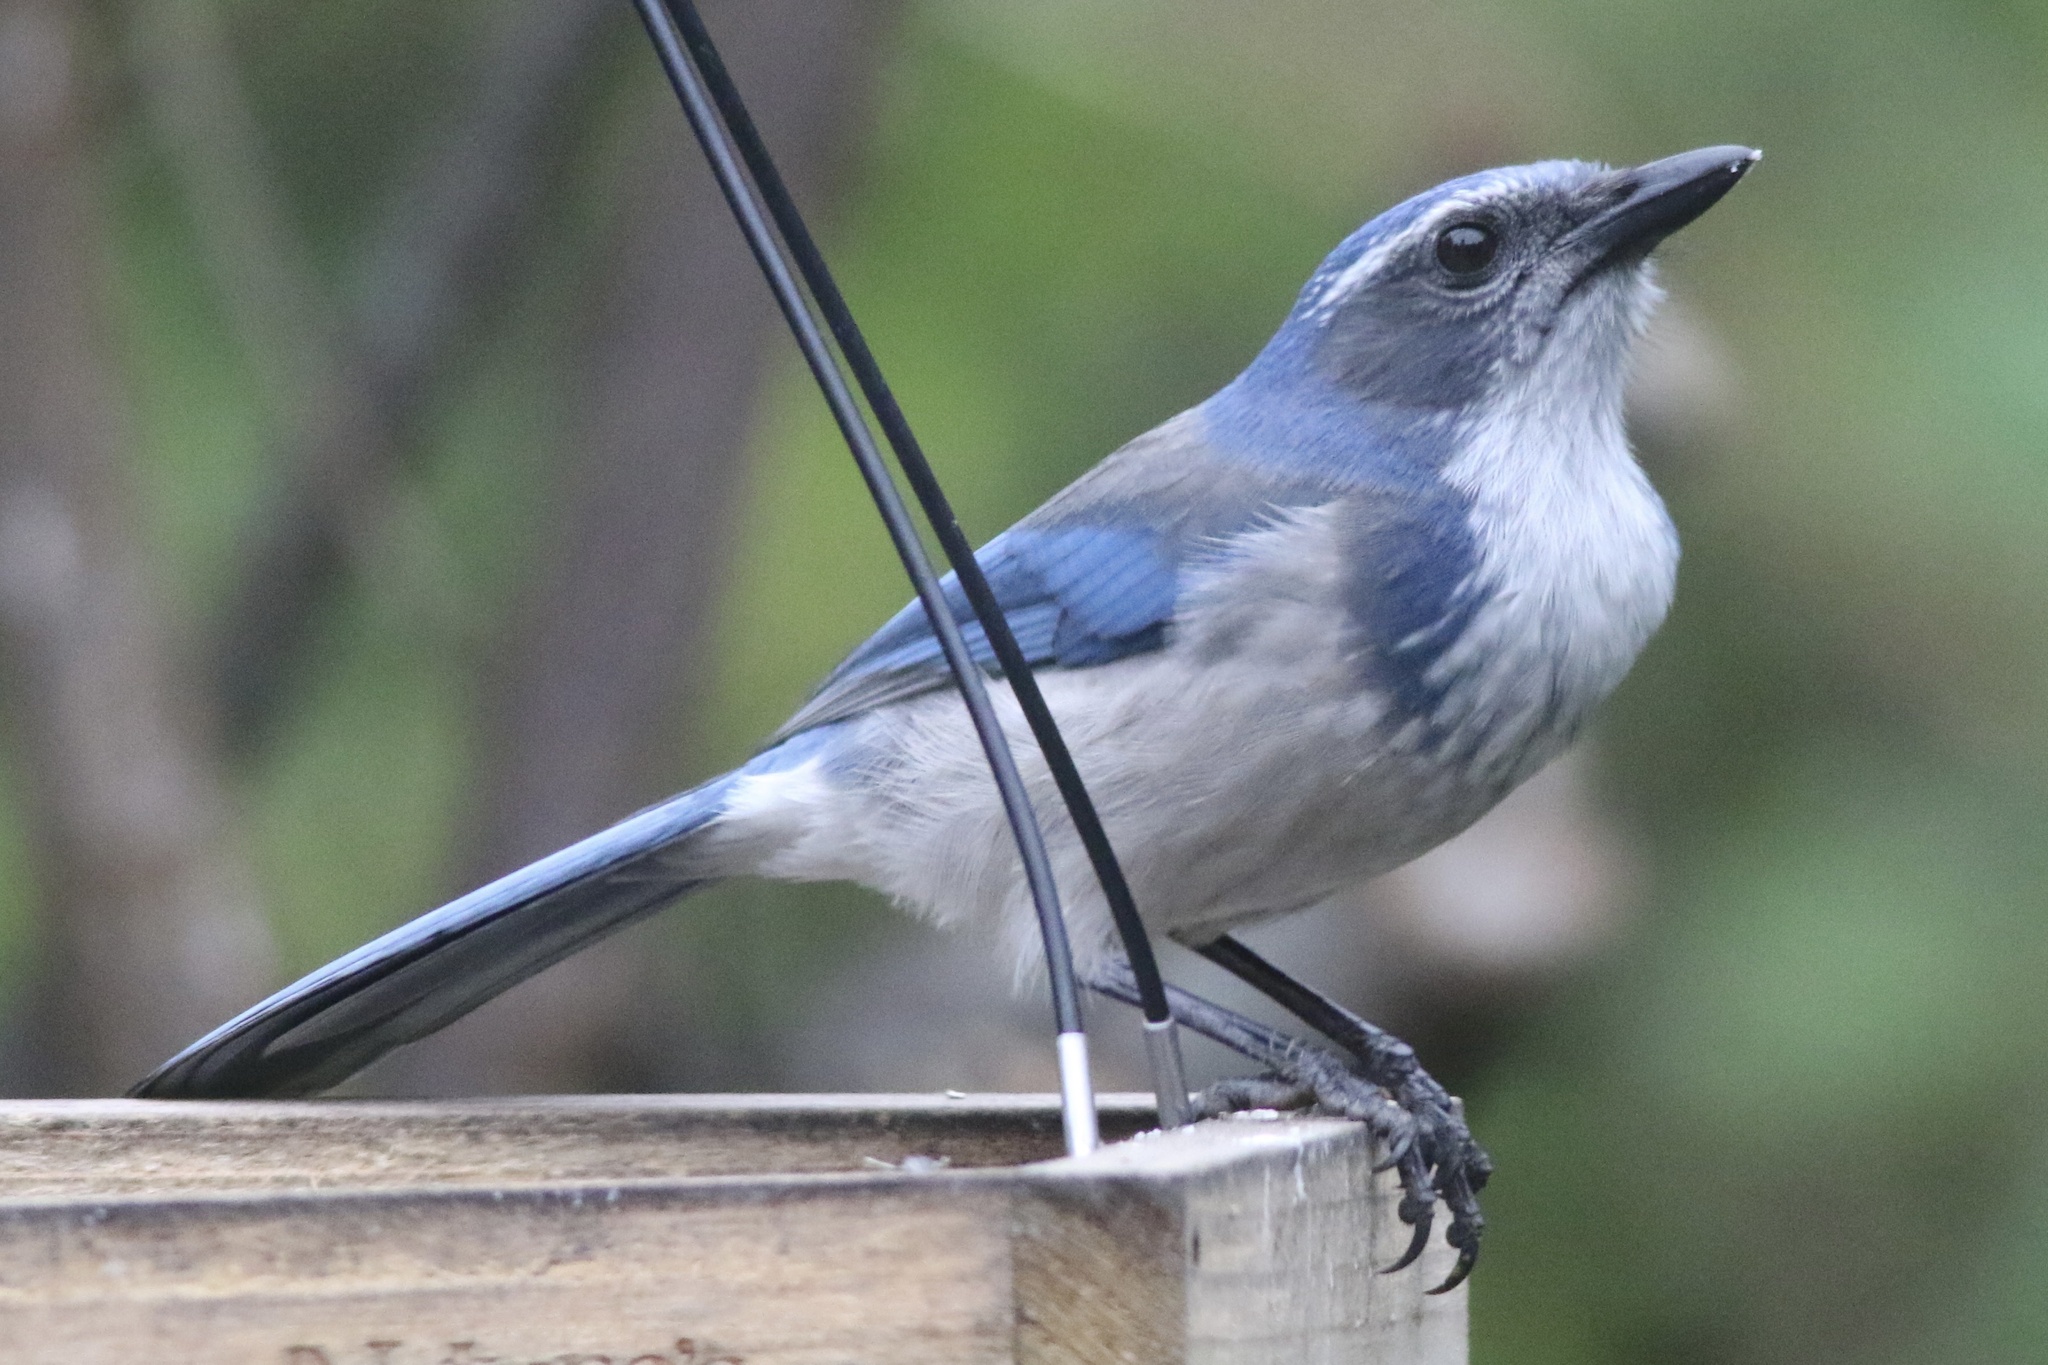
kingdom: Animalia
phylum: Chordata
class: Aves
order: Passeriformes
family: Corvidae
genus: Aphelocoma
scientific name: Aphelocoma californica
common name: California scrub-jay
